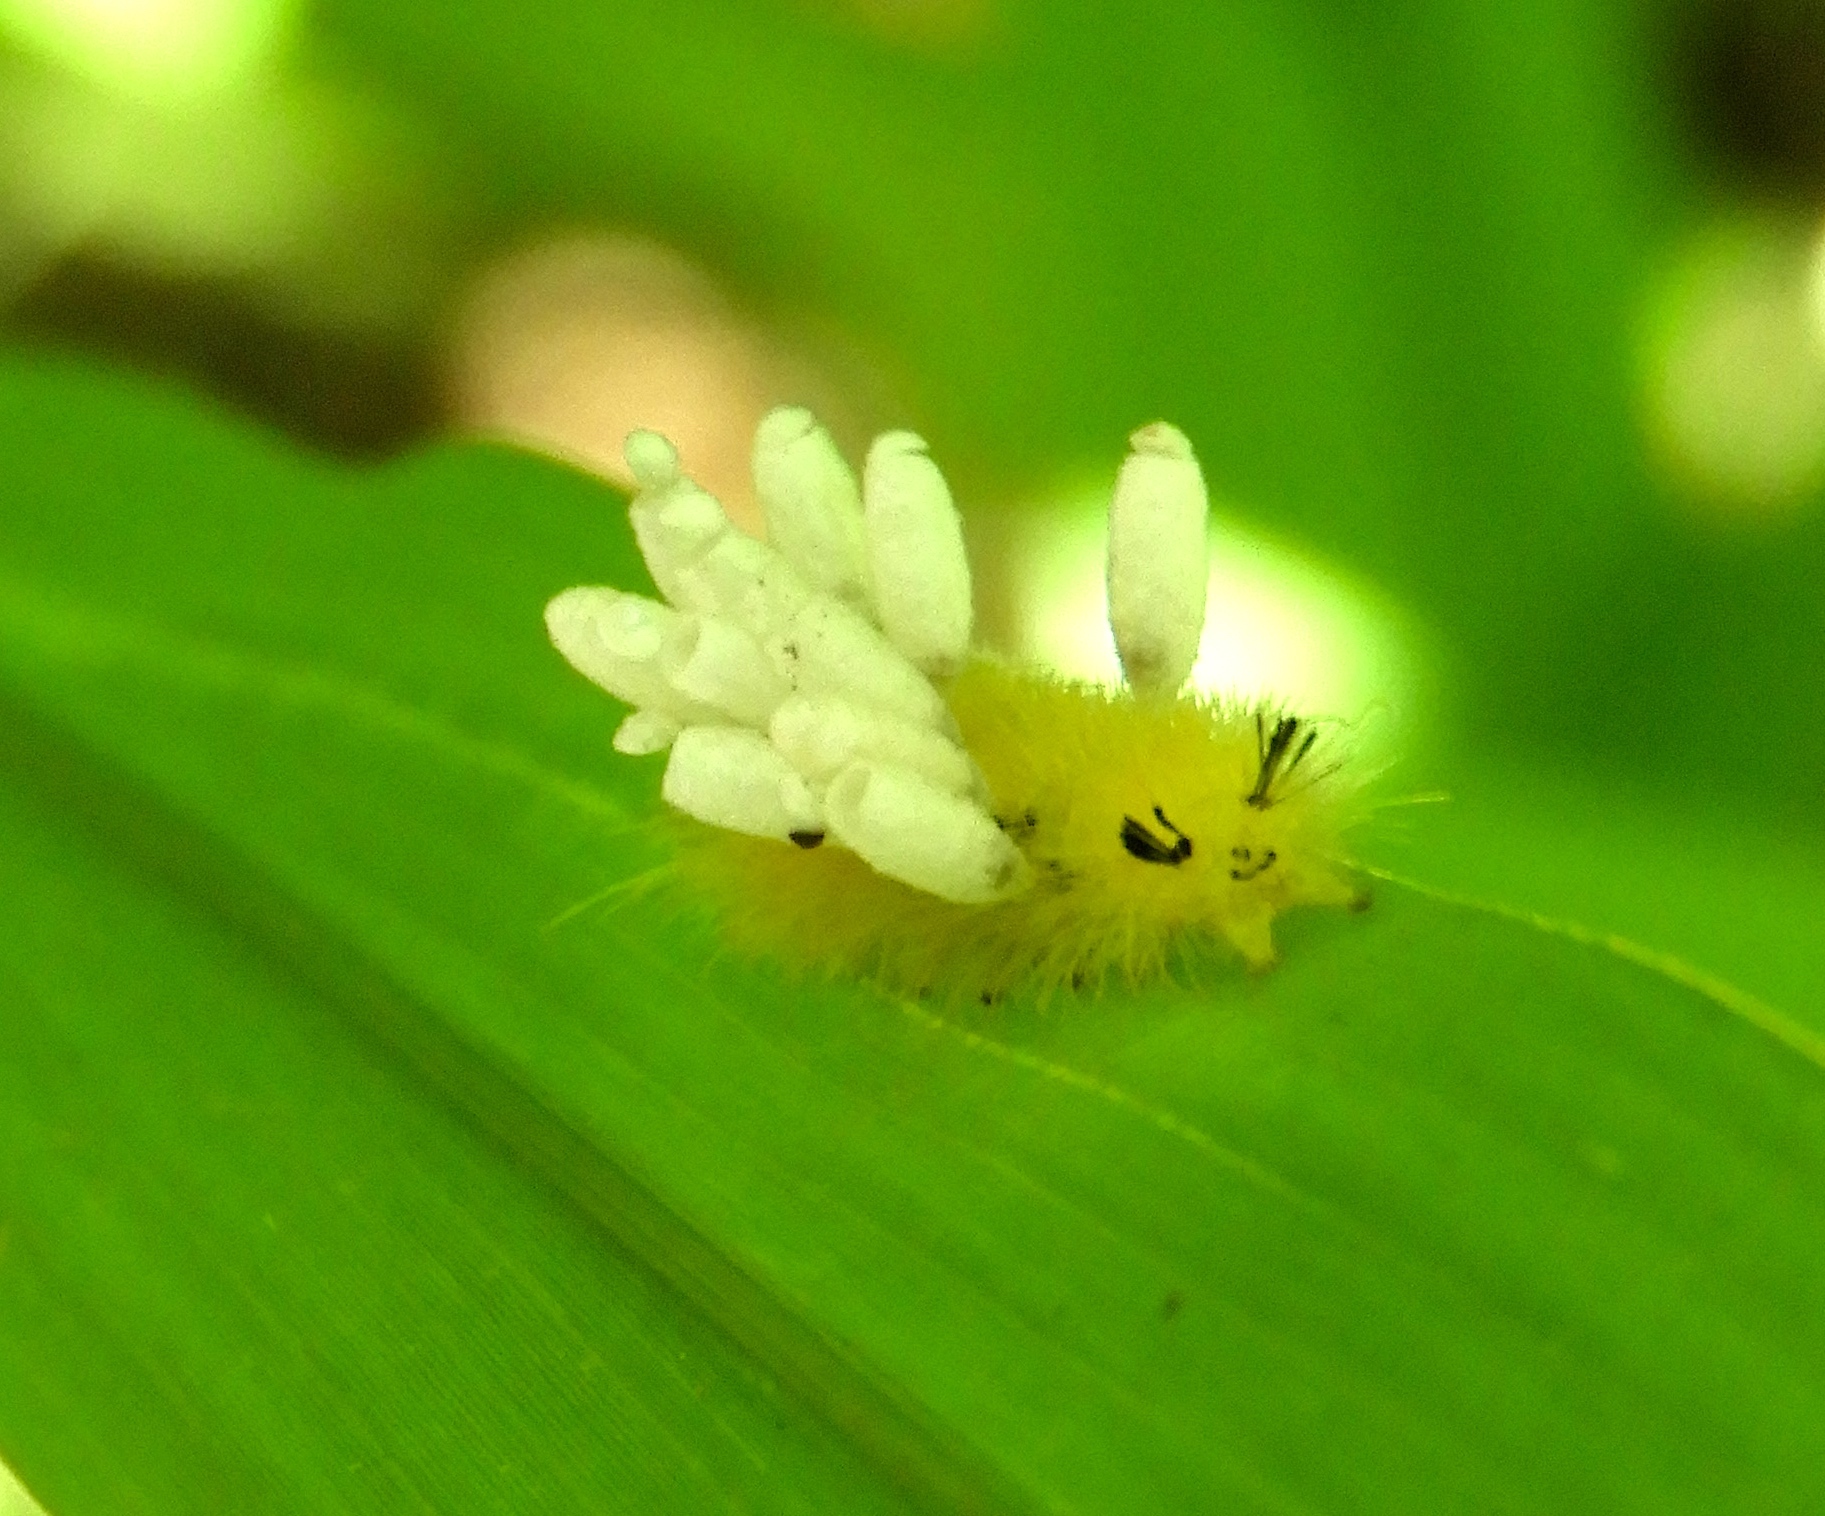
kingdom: Animalia
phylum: Arthropoda
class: Insecta
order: Lepidoptera
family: Erebidae
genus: Lophocampa
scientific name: Lophocampa annulosa
